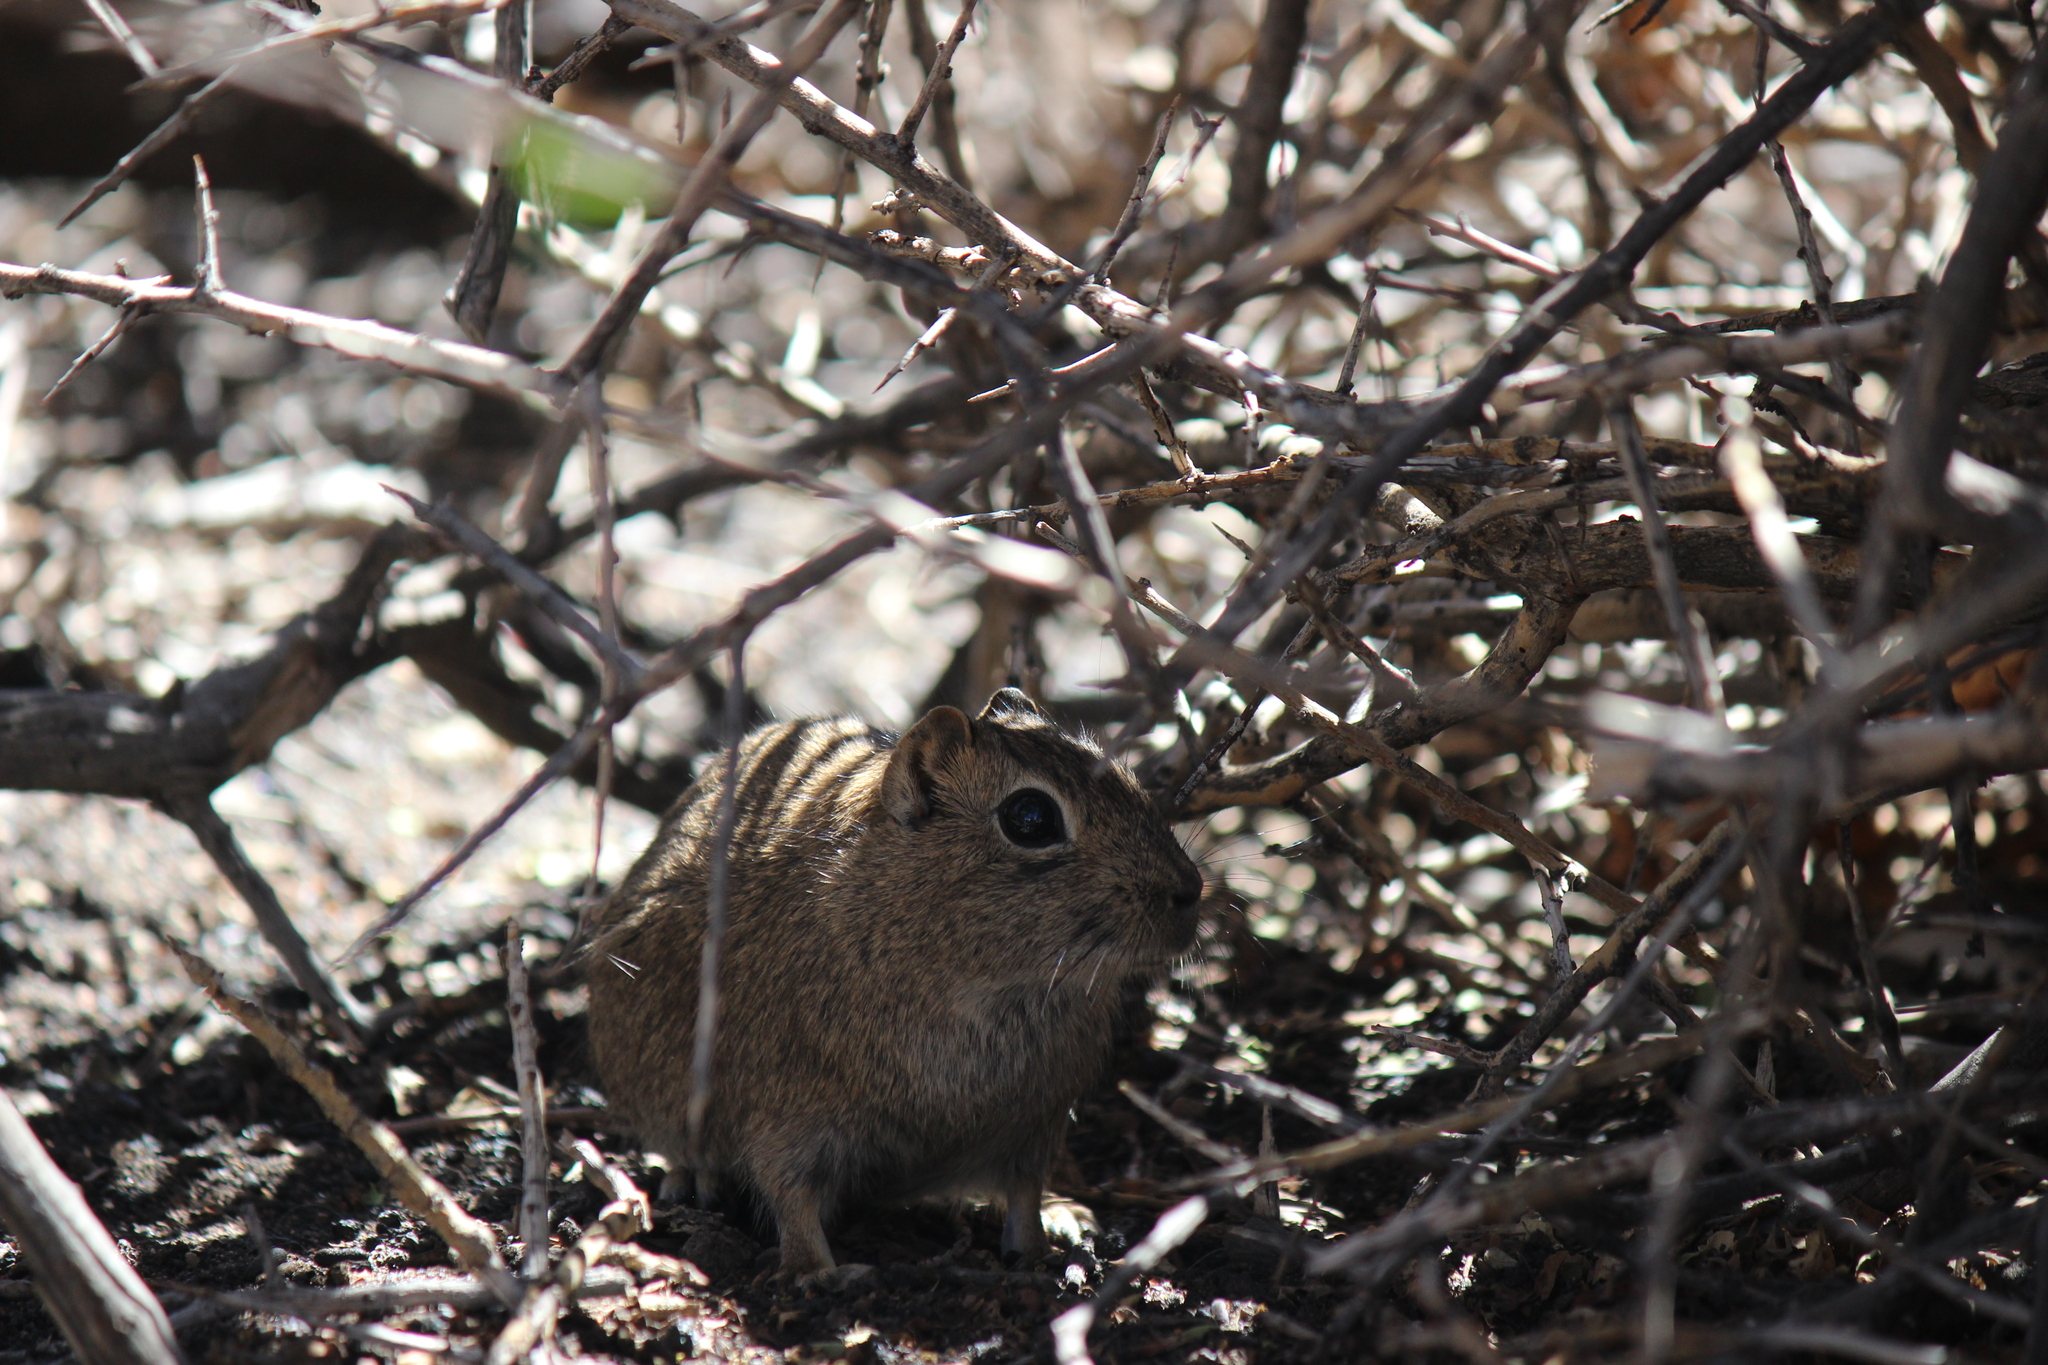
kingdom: Animalia
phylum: Chordata
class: Mammalia
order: Rodentia
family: Caviidae
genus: Microcavia
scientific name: Microcavia australis
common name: Southern mountain cavy
